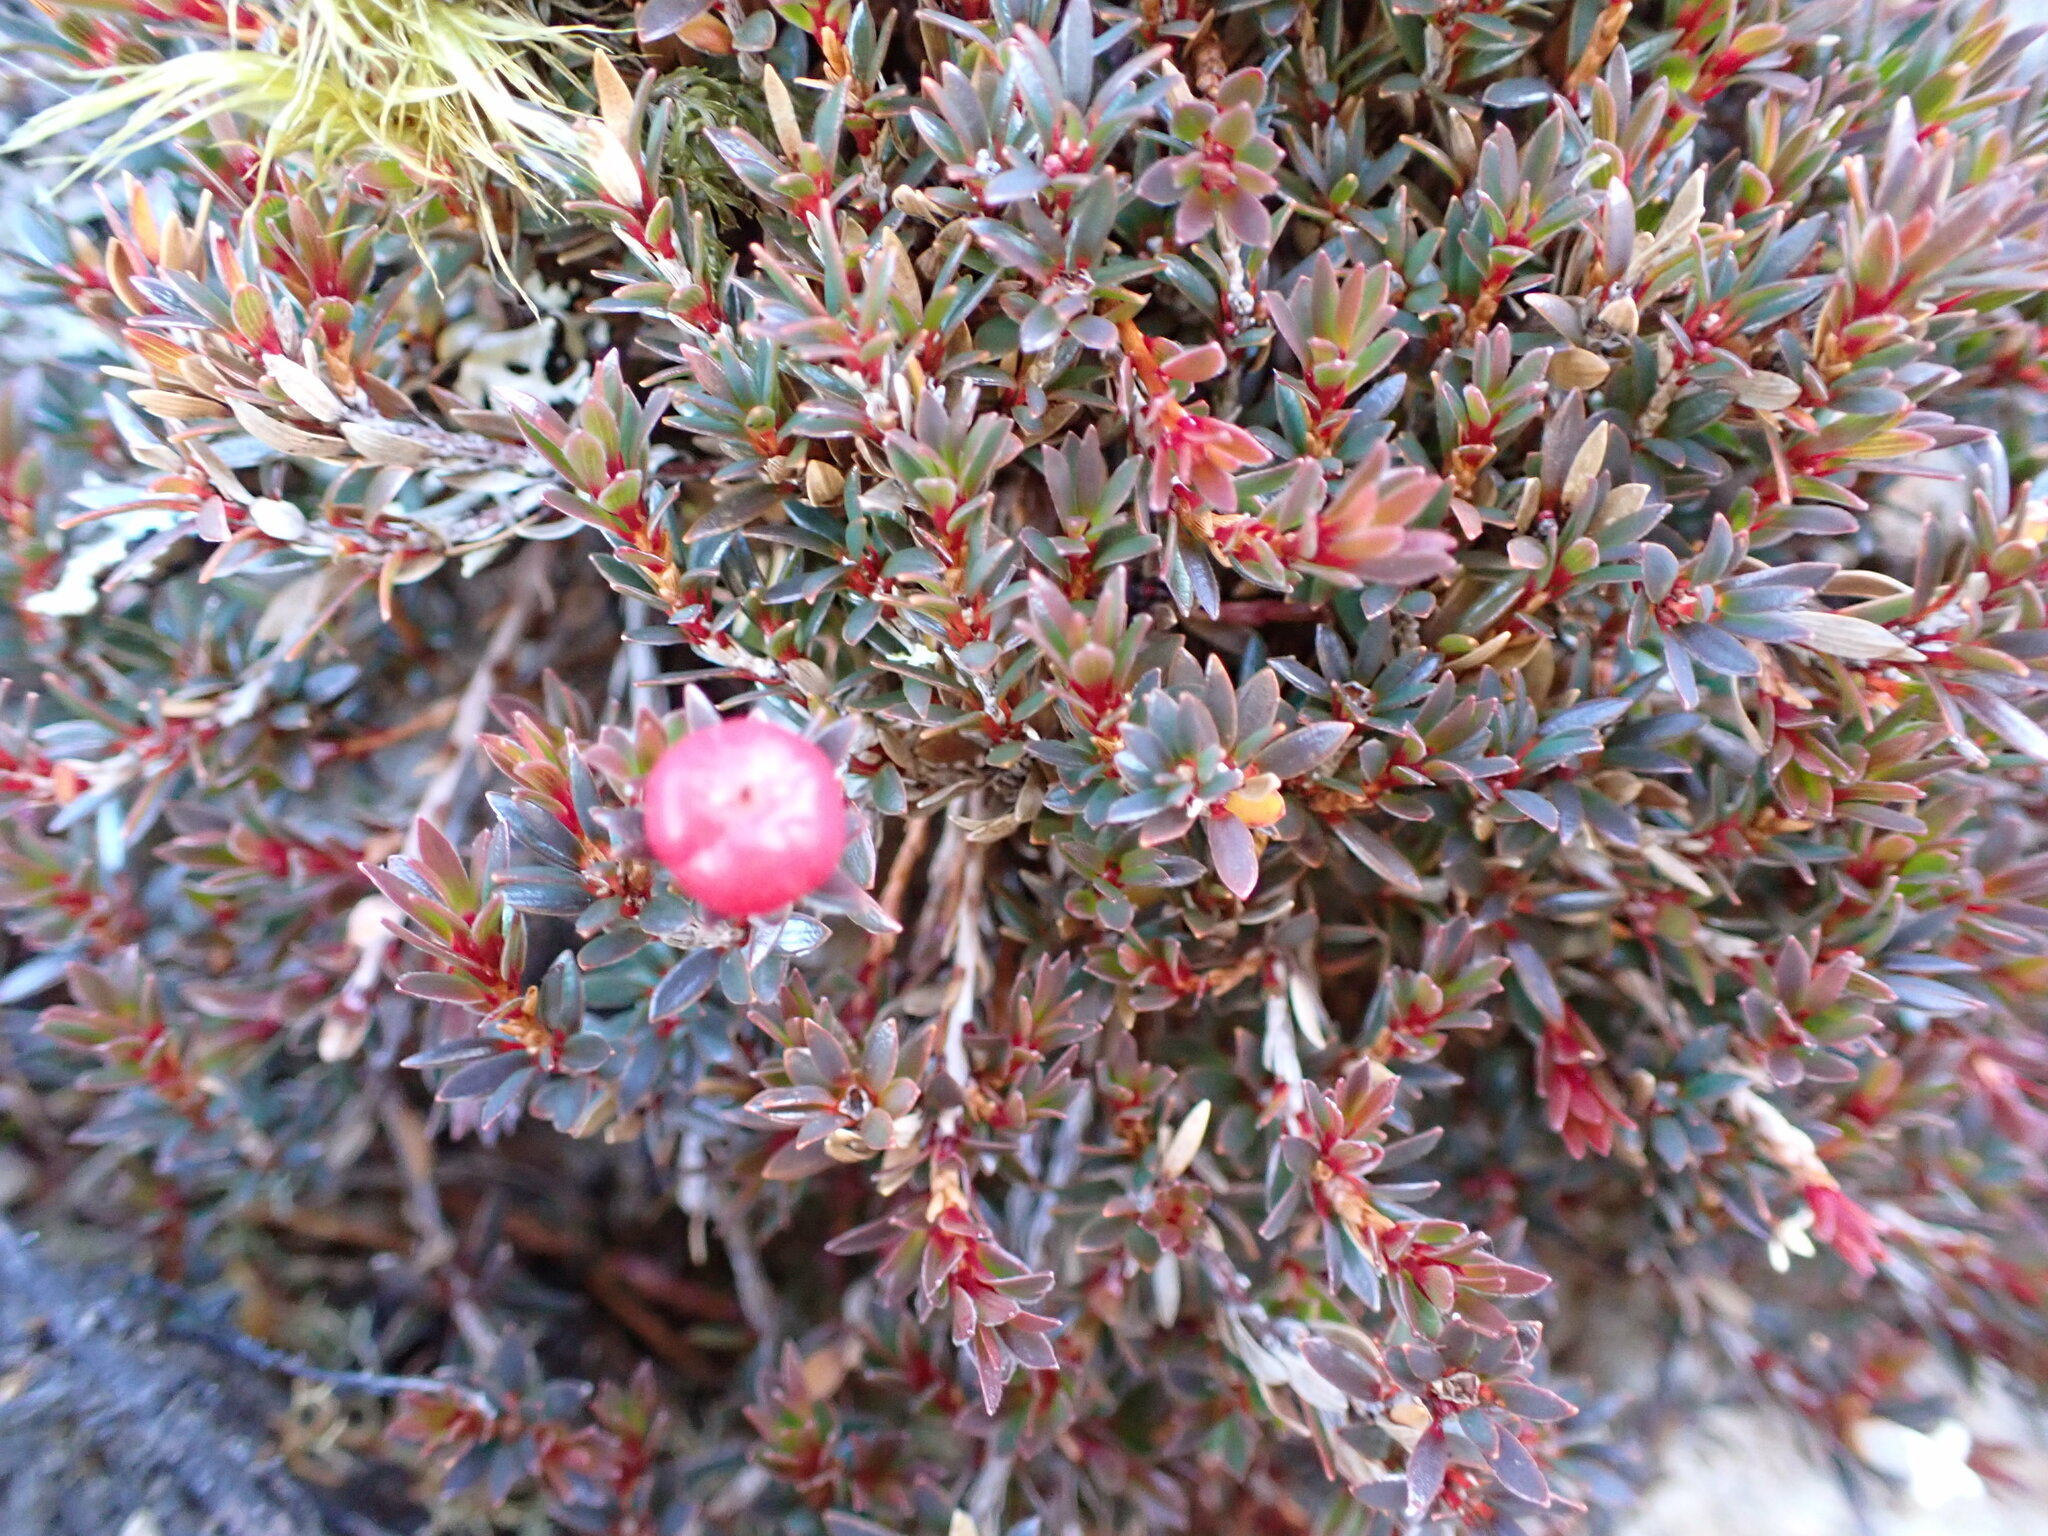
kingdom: Plantae
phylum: Tracheophyta
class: Magnoliopsida
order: Ericales
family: Ericaceae
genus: Pentachondra
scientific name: Pentachondra pumila
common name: Carpet-heath
